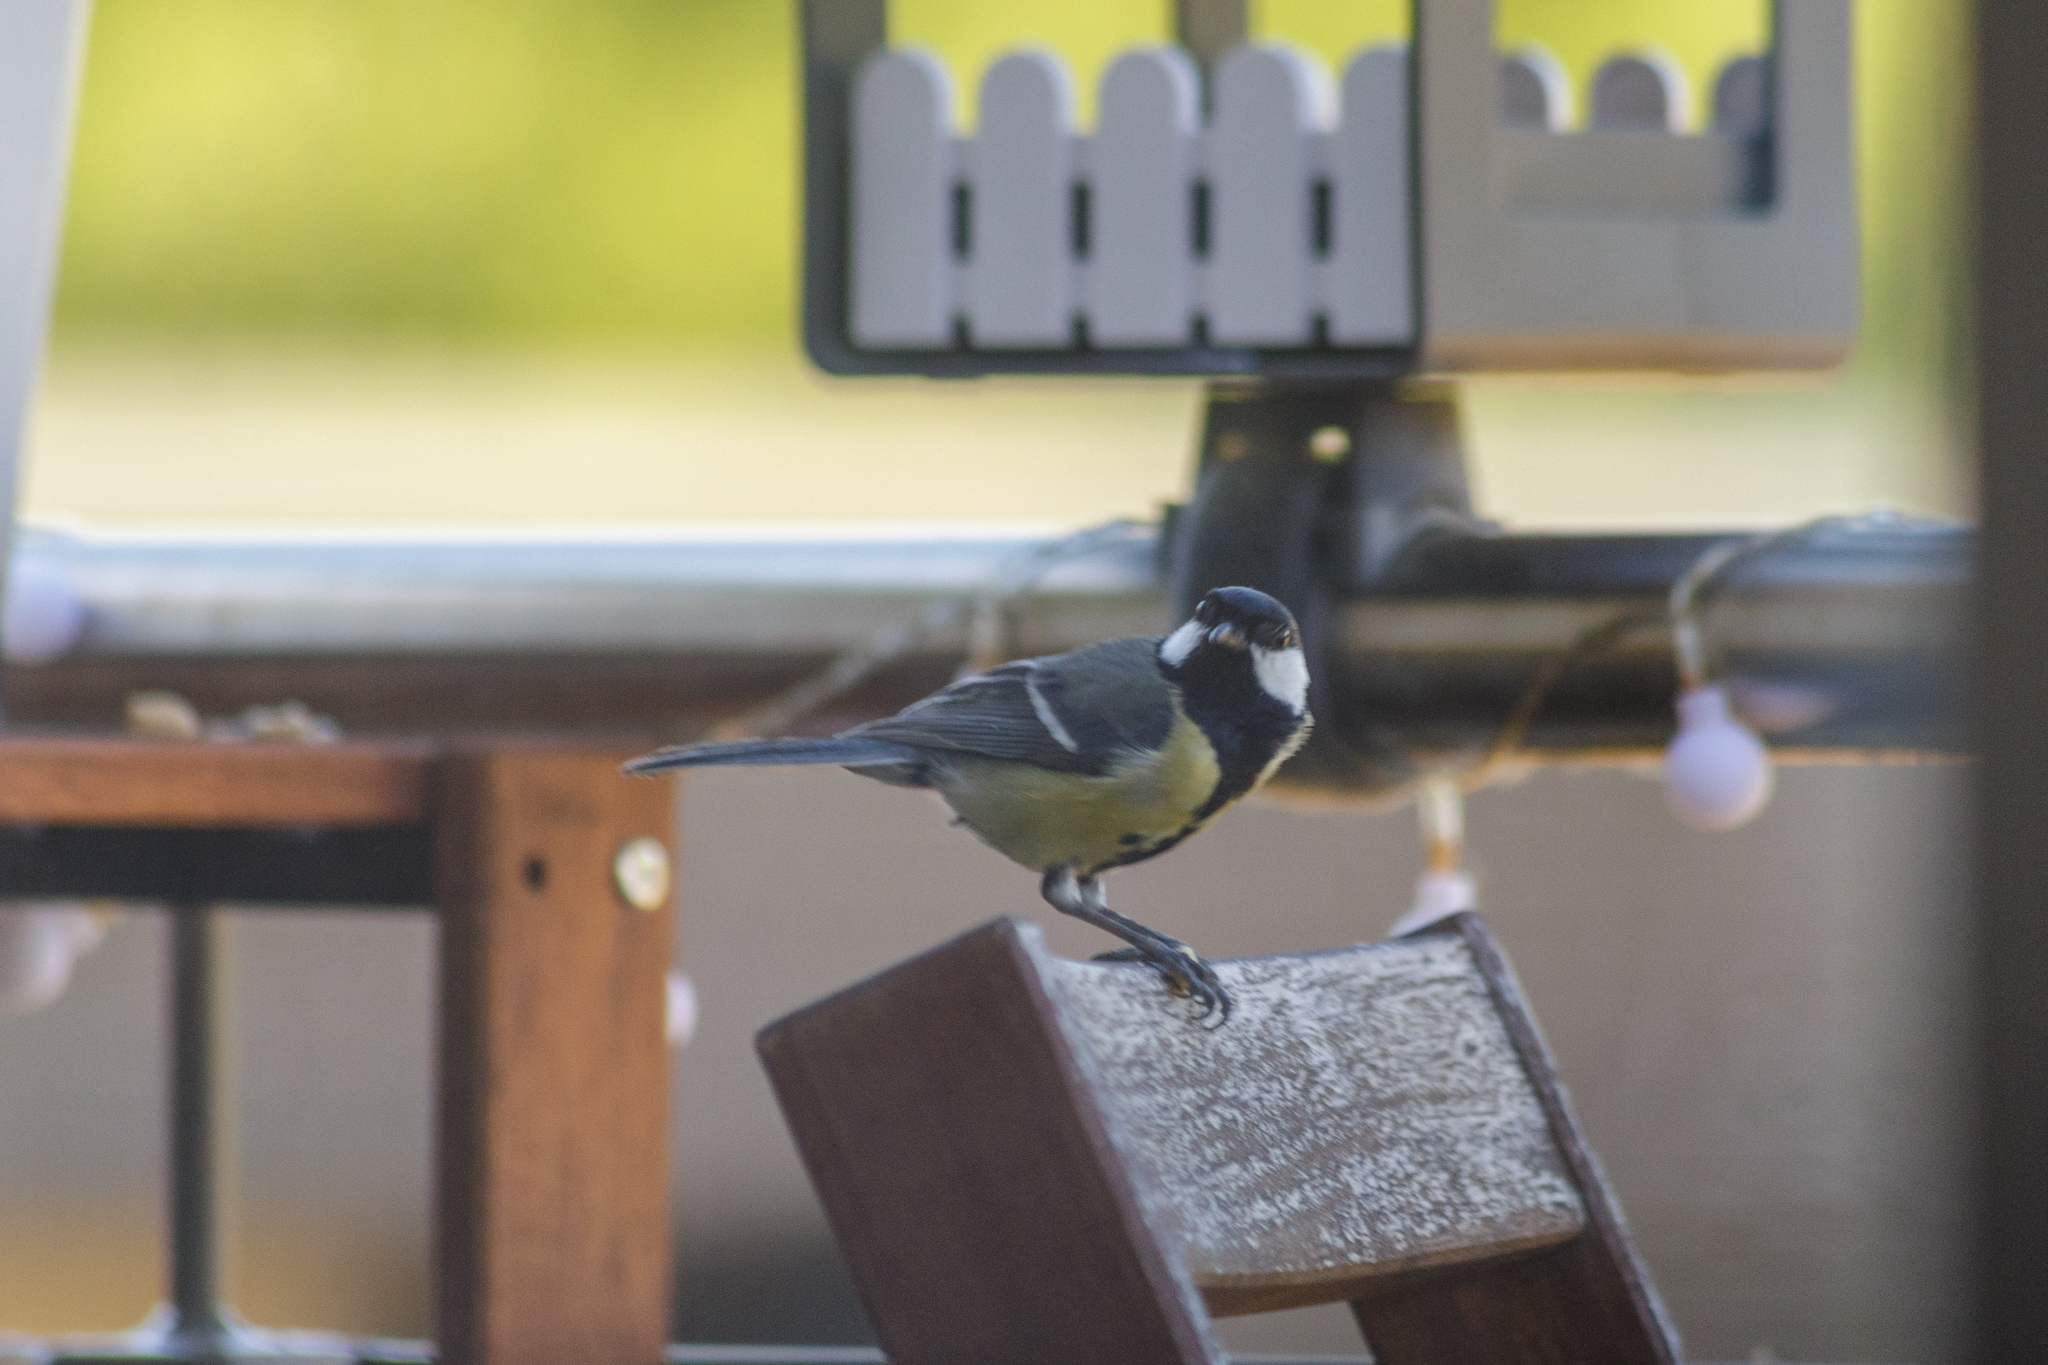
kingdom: Animalia
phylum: Chordata
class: Aves
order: Passeriformes
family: Paridae
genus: Parus
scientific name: Parus major
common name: Great tit
